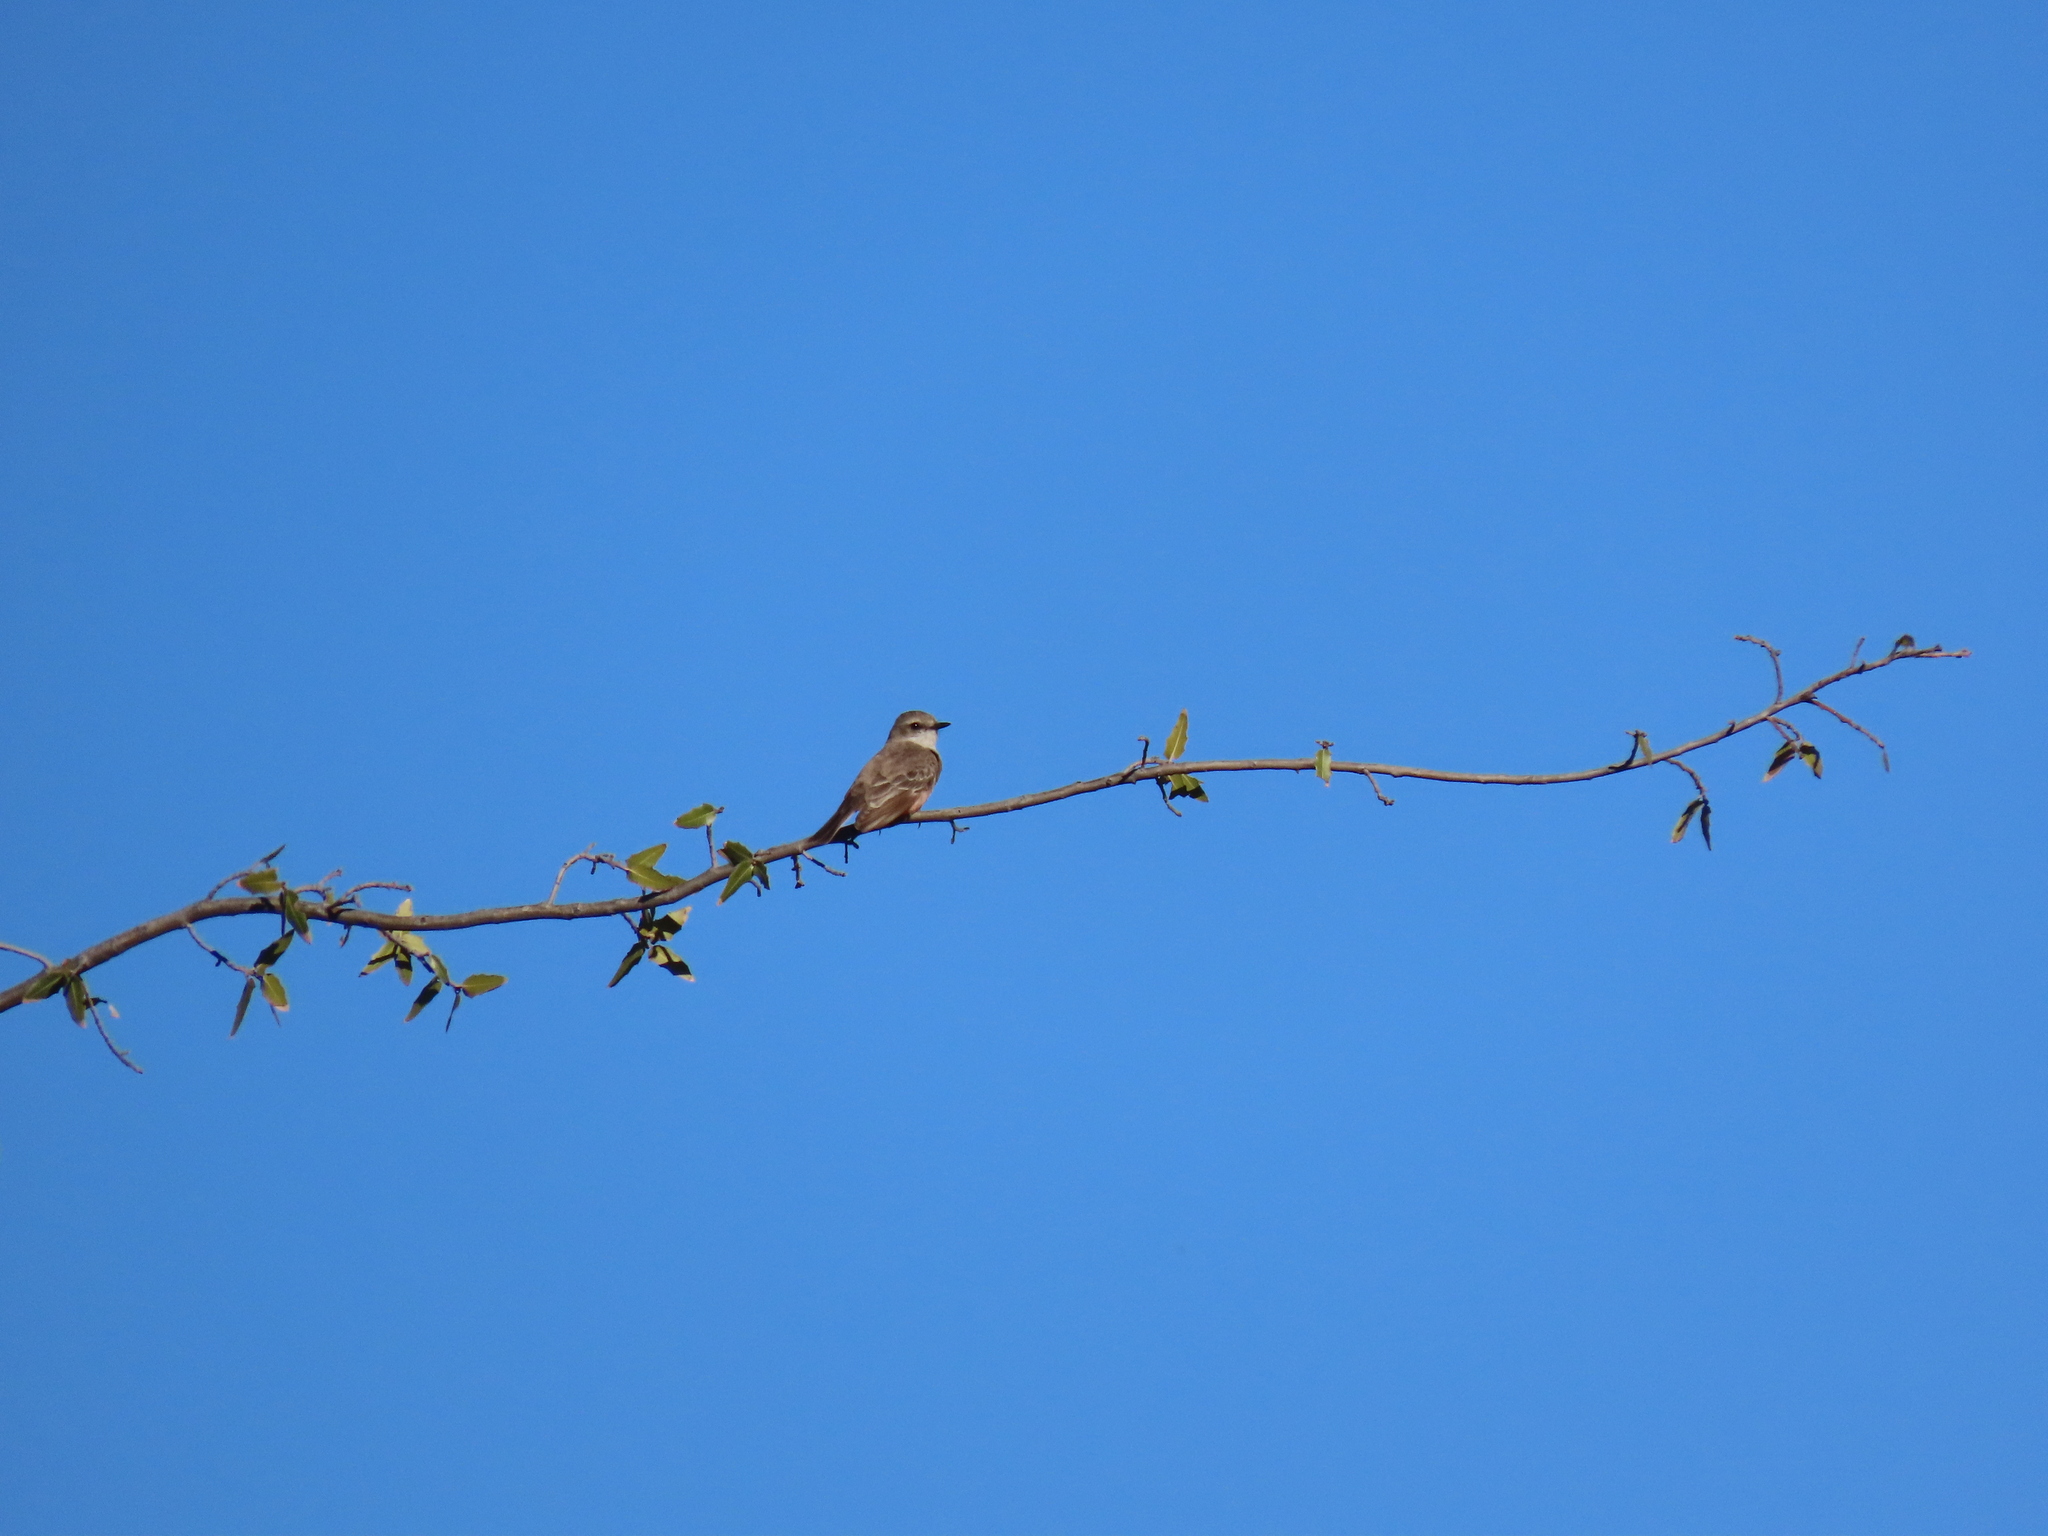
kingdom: Animalia
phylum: Chordata
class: Aves
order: Passeriformes
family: Tyrannidae
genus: Pyrocephalus
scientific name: Pyrocephalus rubinus
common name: Vermilion flycatcher
